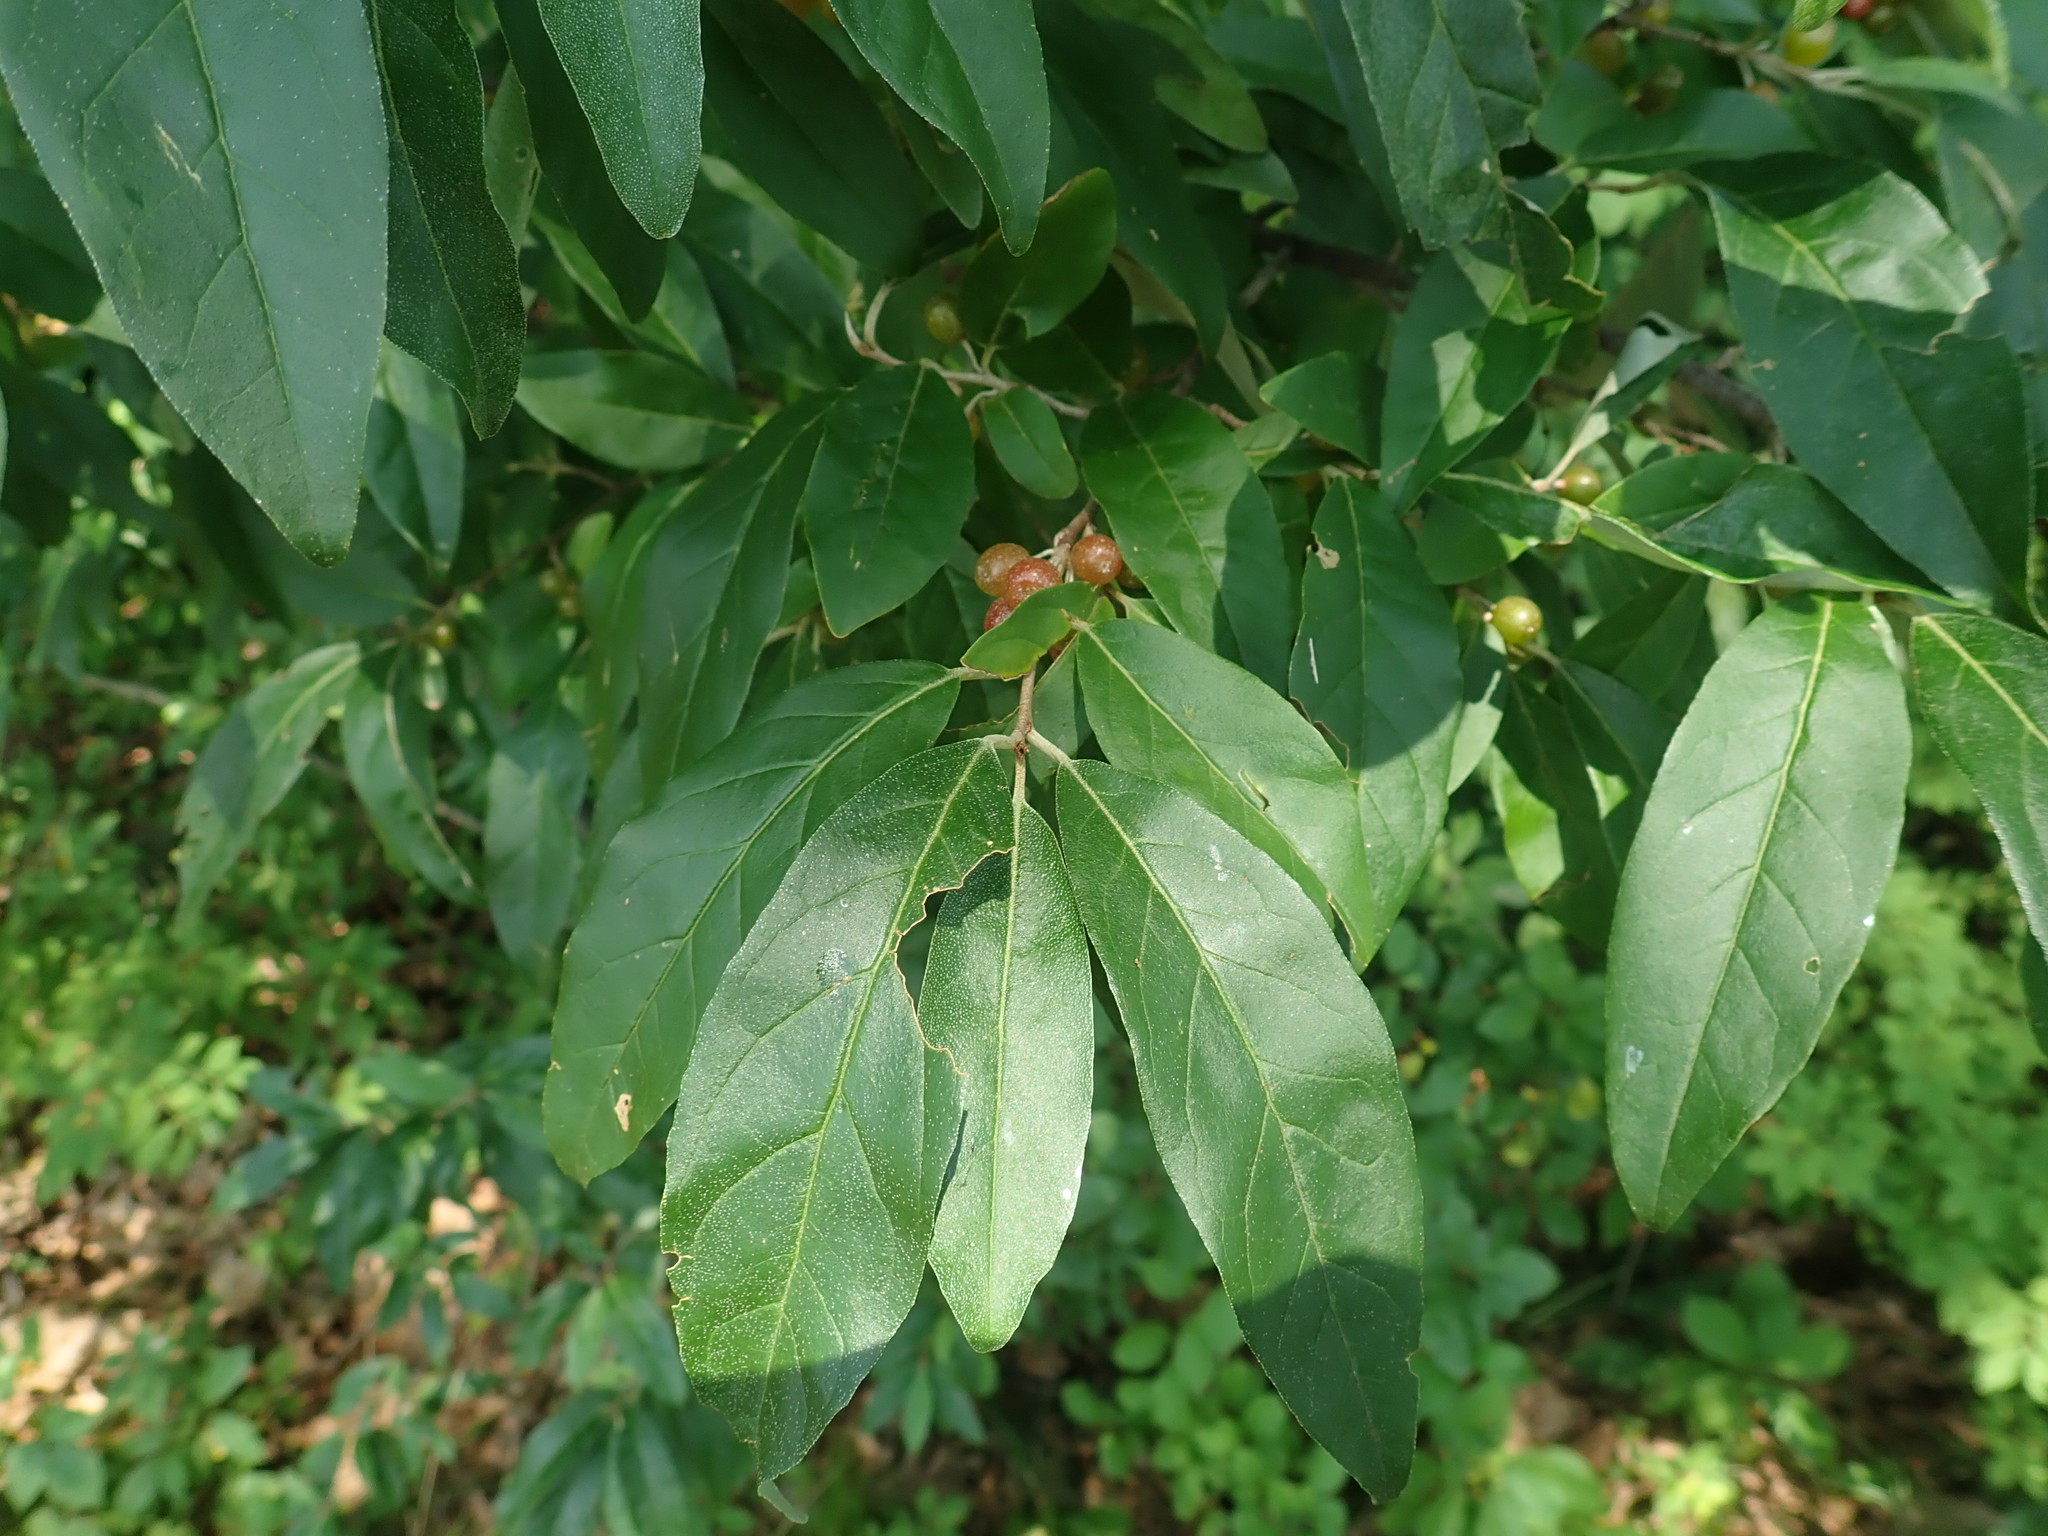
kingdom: Plantae
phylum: Tracheophyta
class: Magnoliopsida
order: Rosales
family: Elaeagnaceae
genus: Elaeagnus
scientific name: Elaeagnus umbellata
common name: Autumn olive
